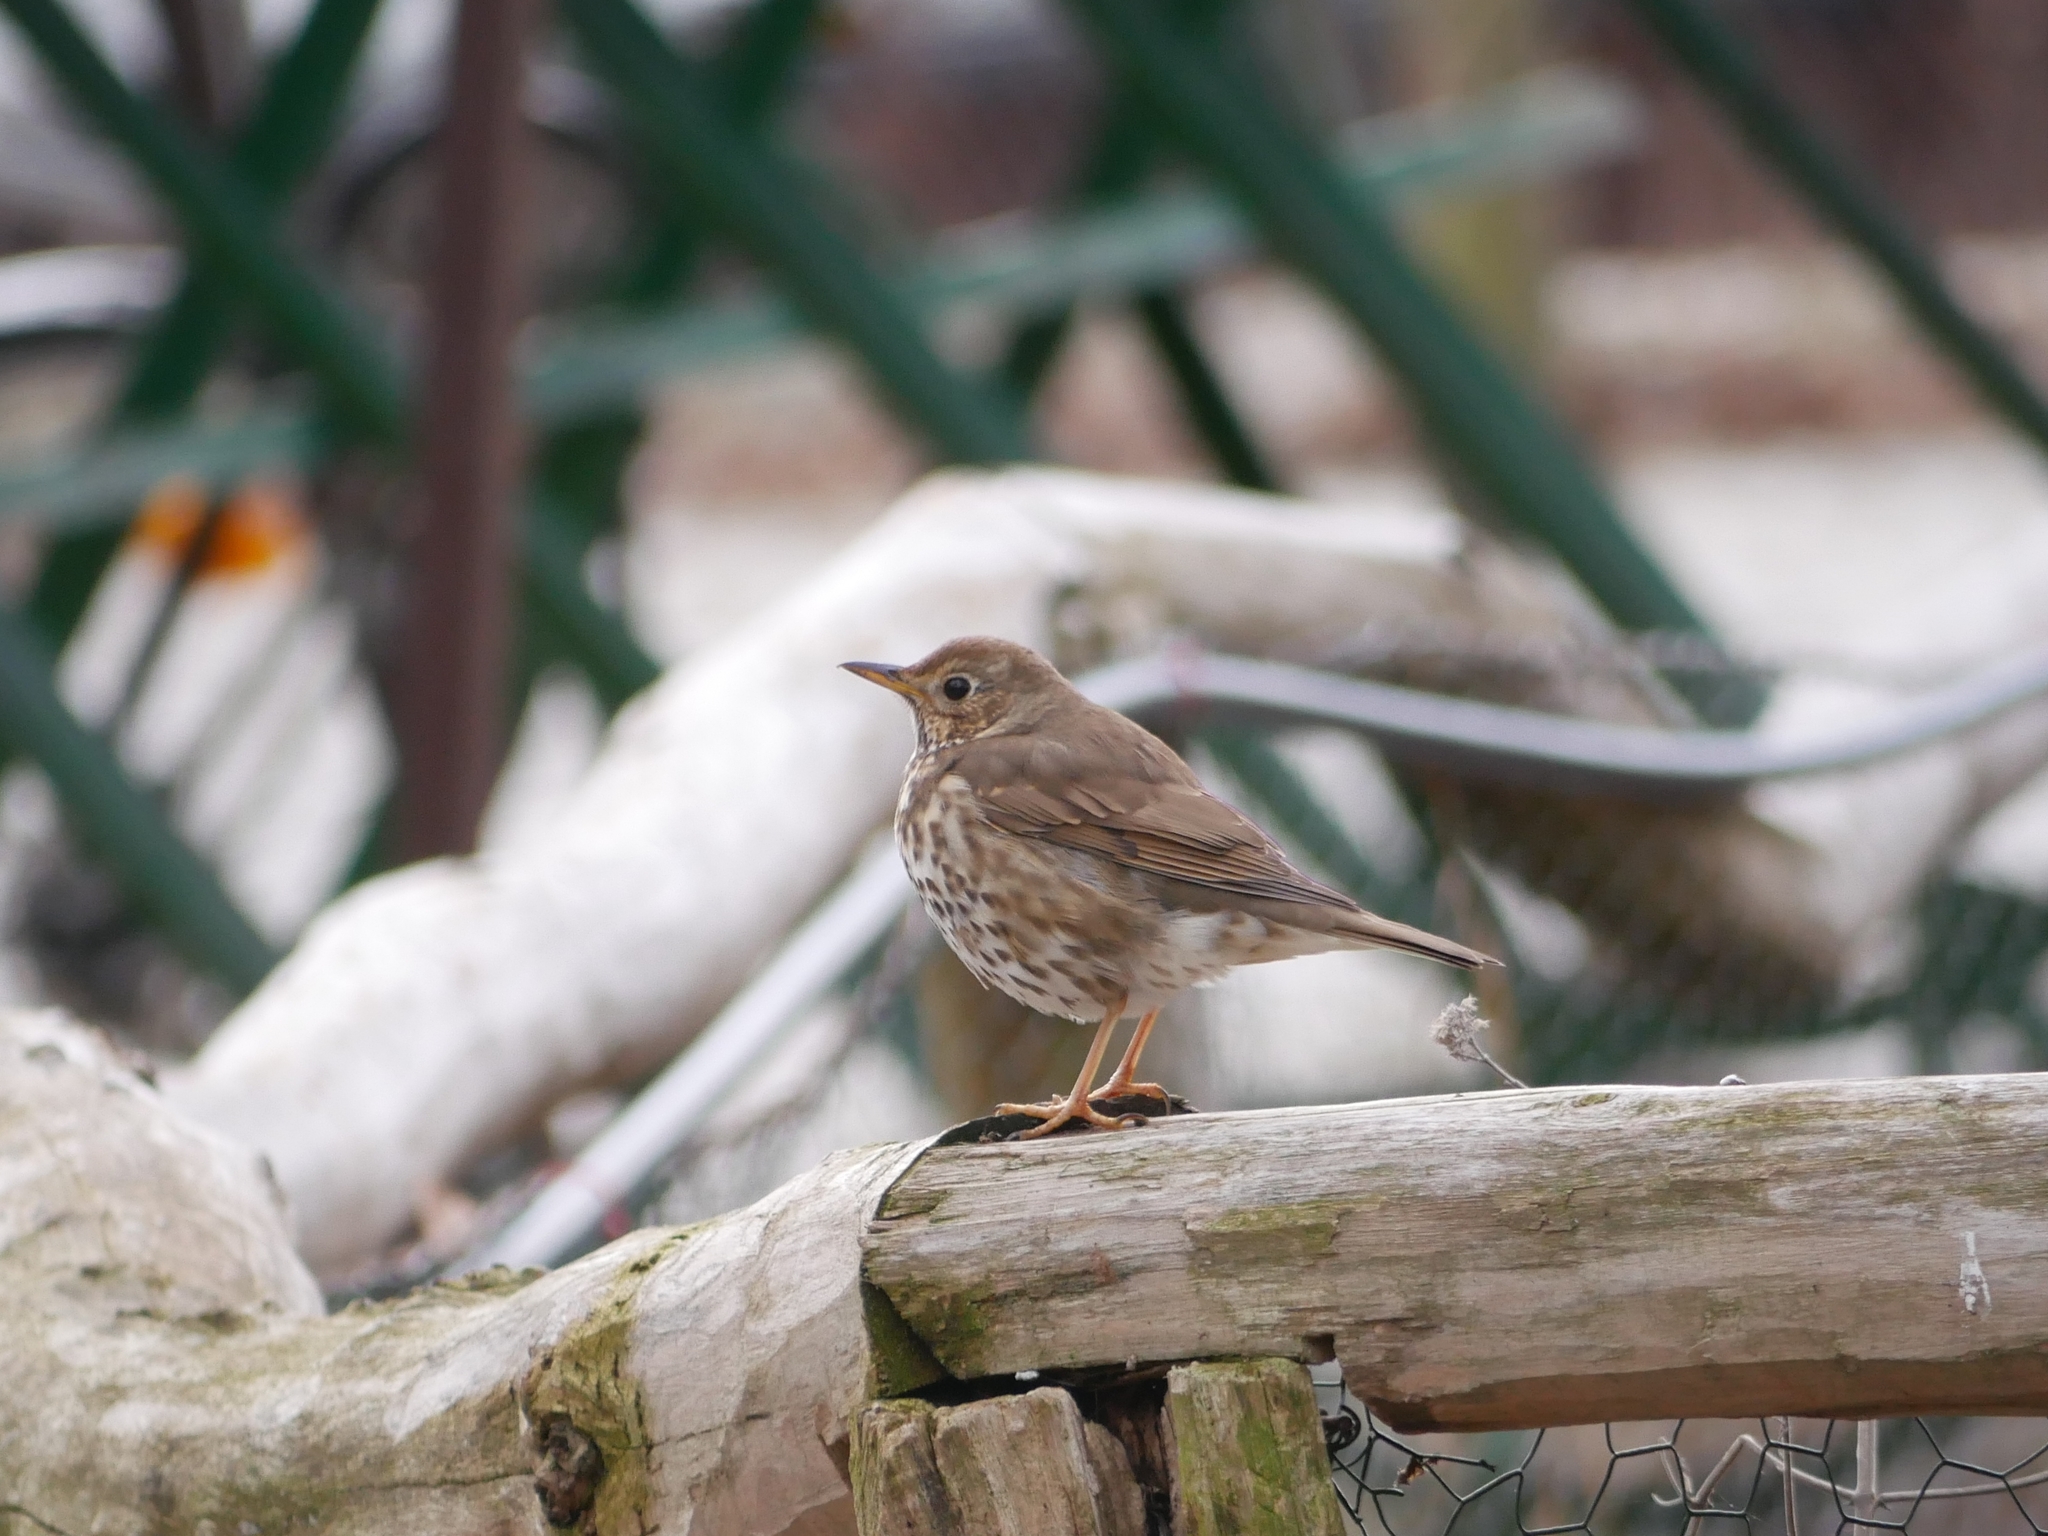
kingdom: Animalia
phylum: Chordata
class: Aves
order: Passeriformes
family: Turdidae
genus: Turdus
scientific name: Turdus philomelos
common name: Song thrush
